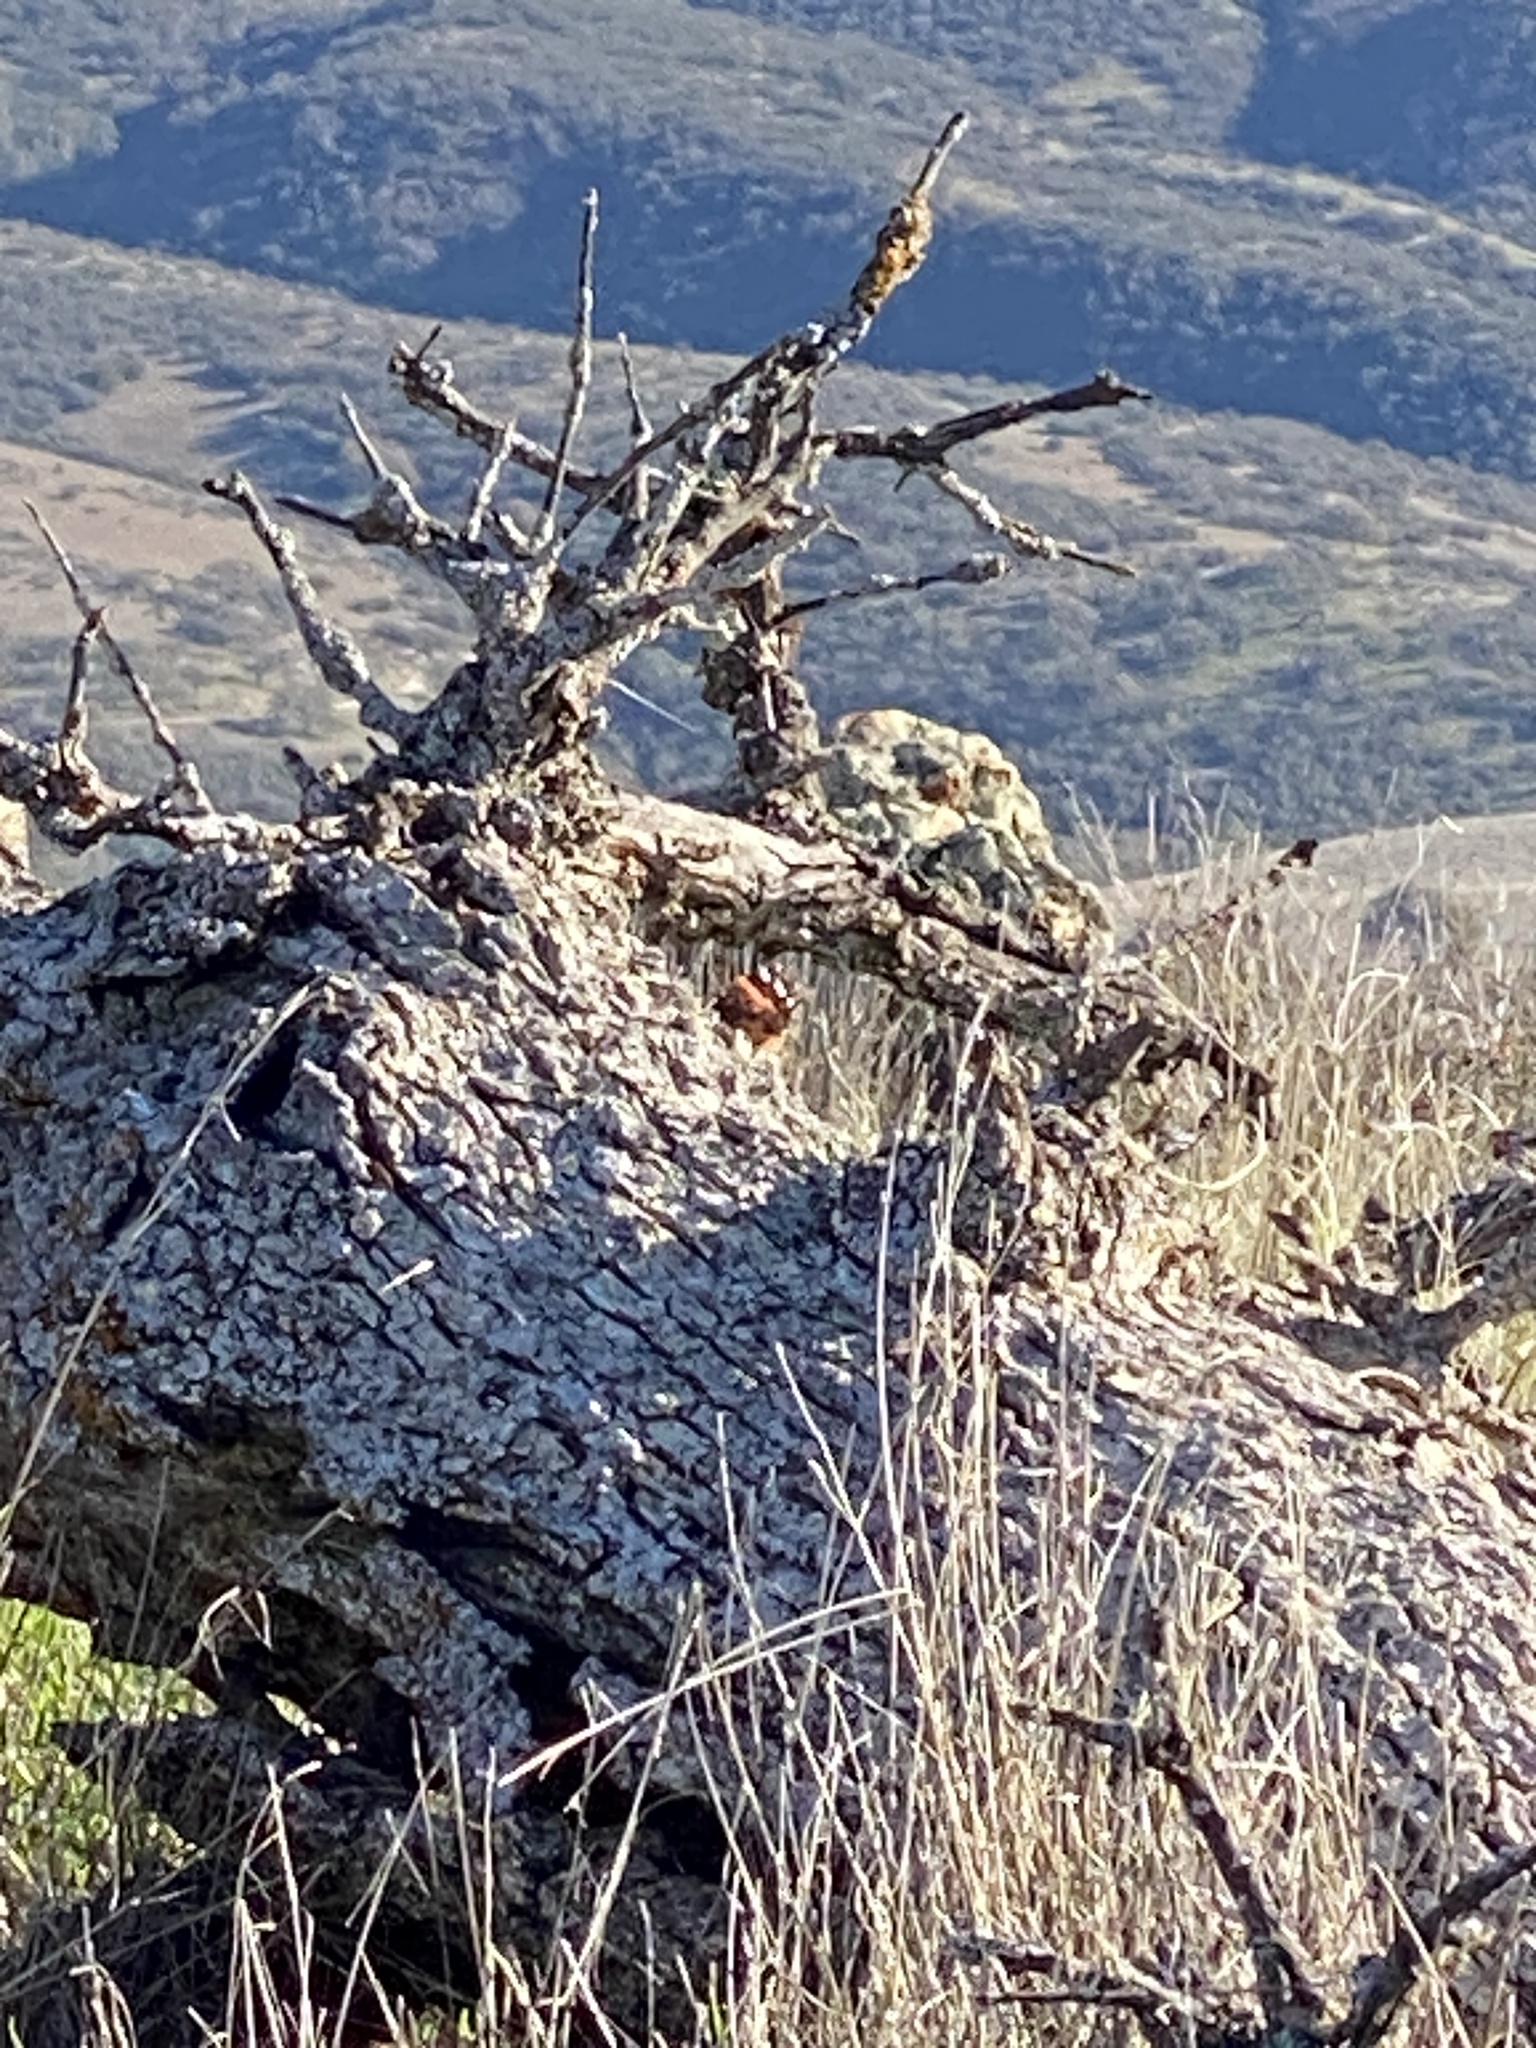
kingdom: Animalia
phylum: Arthropoda
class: Insecta
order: Lepidoptera
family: Nymphalidae
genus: Vanessa
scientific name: Vanessa atalanta
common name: Red admiral
